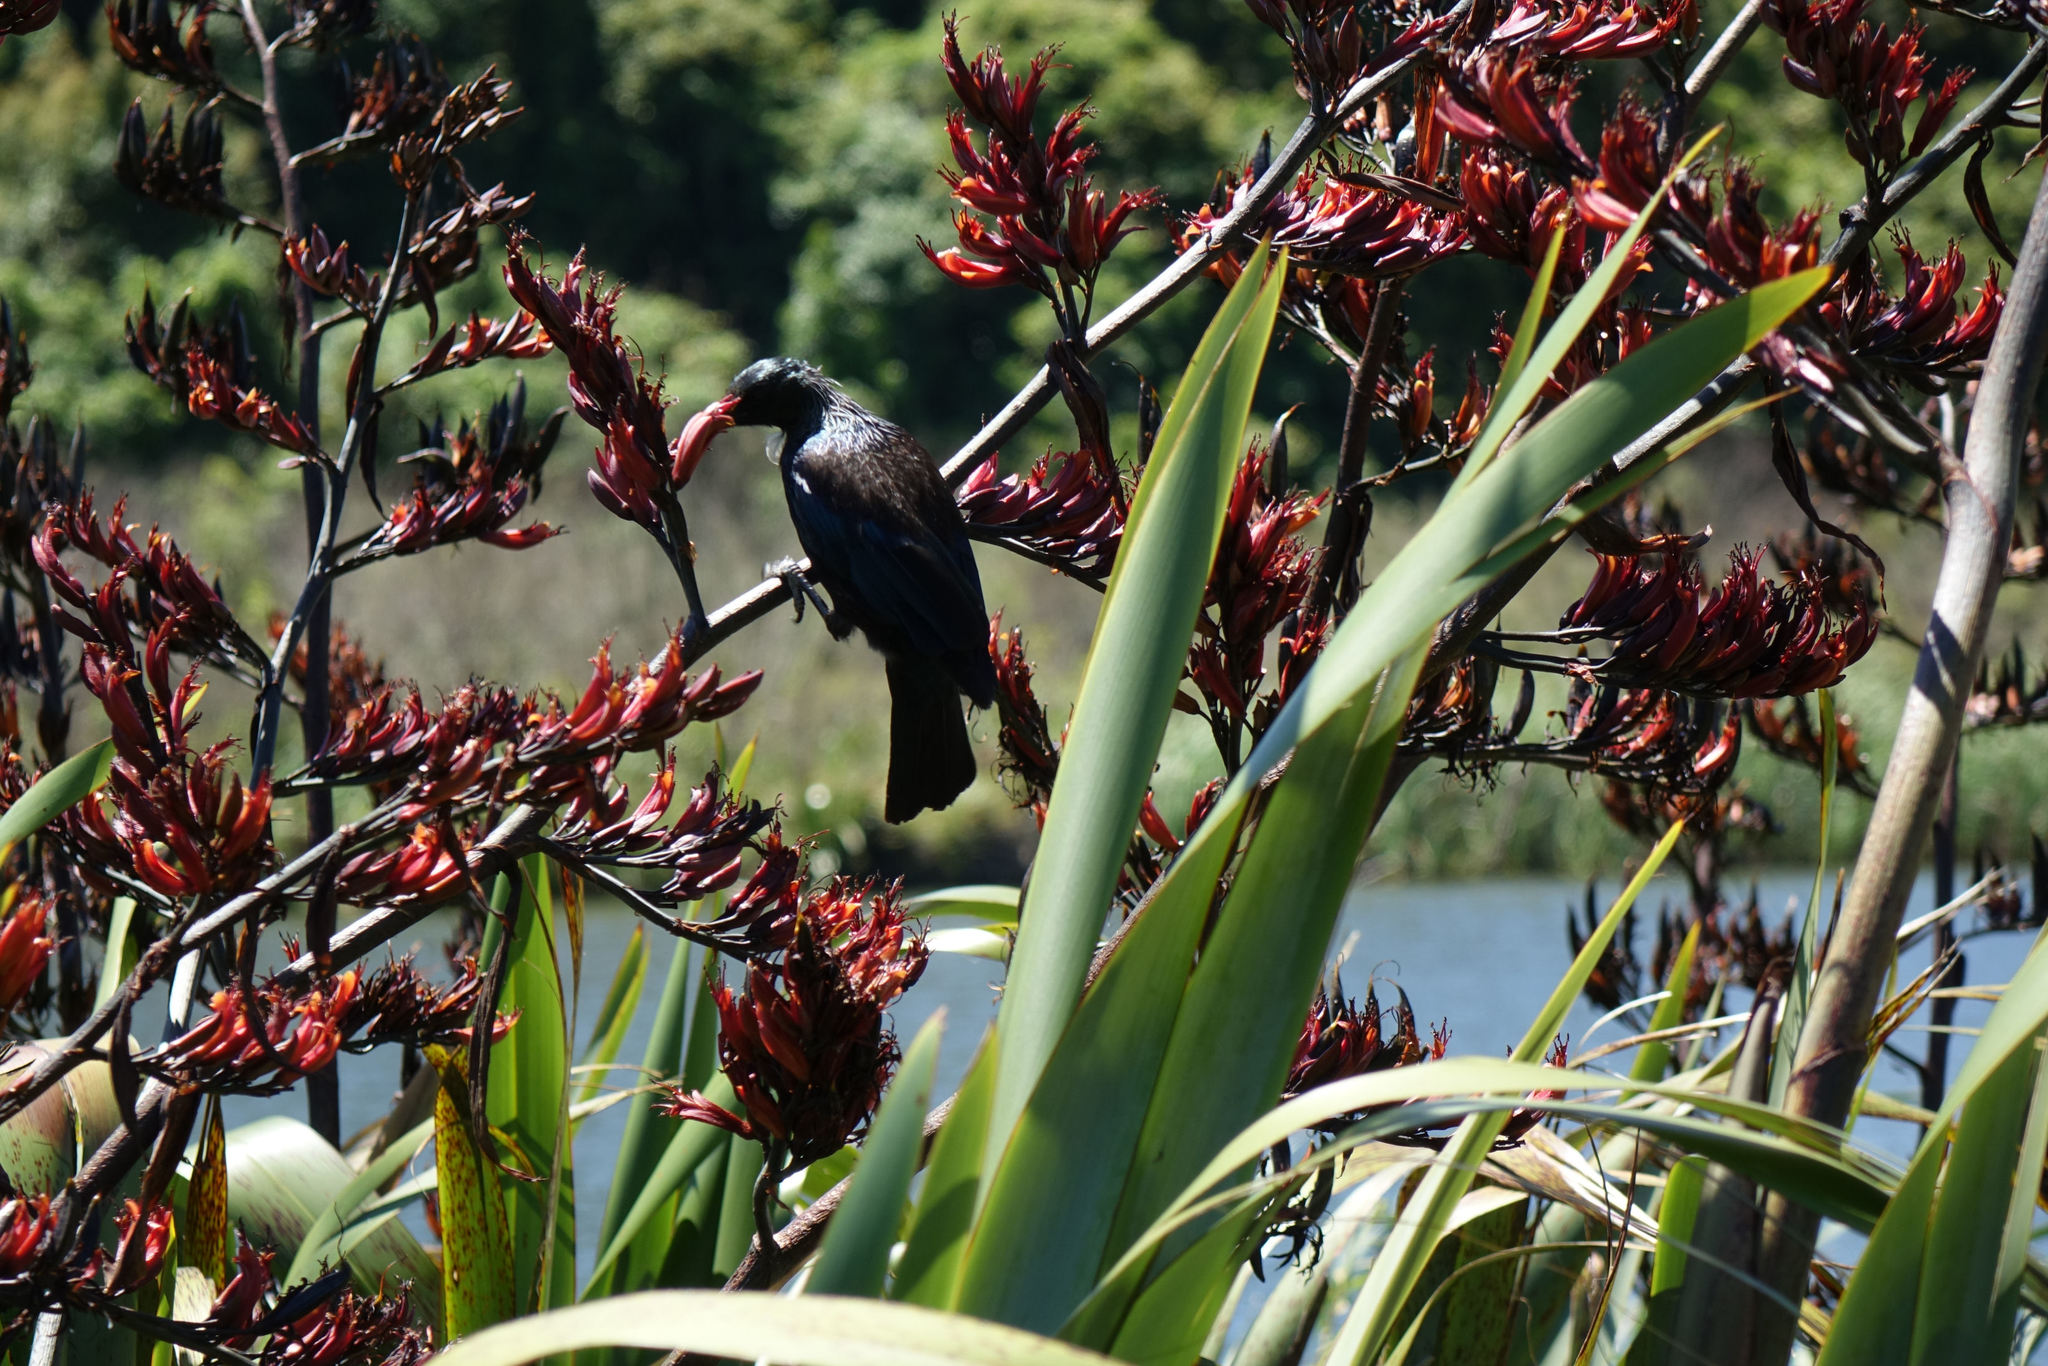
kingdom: Animalia
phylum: Chordata
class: Aves
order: Passeriformes
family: Meliphagidae
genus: Prosthemadera
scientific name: Prosthemadera novaeseelandiae
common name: Tui
